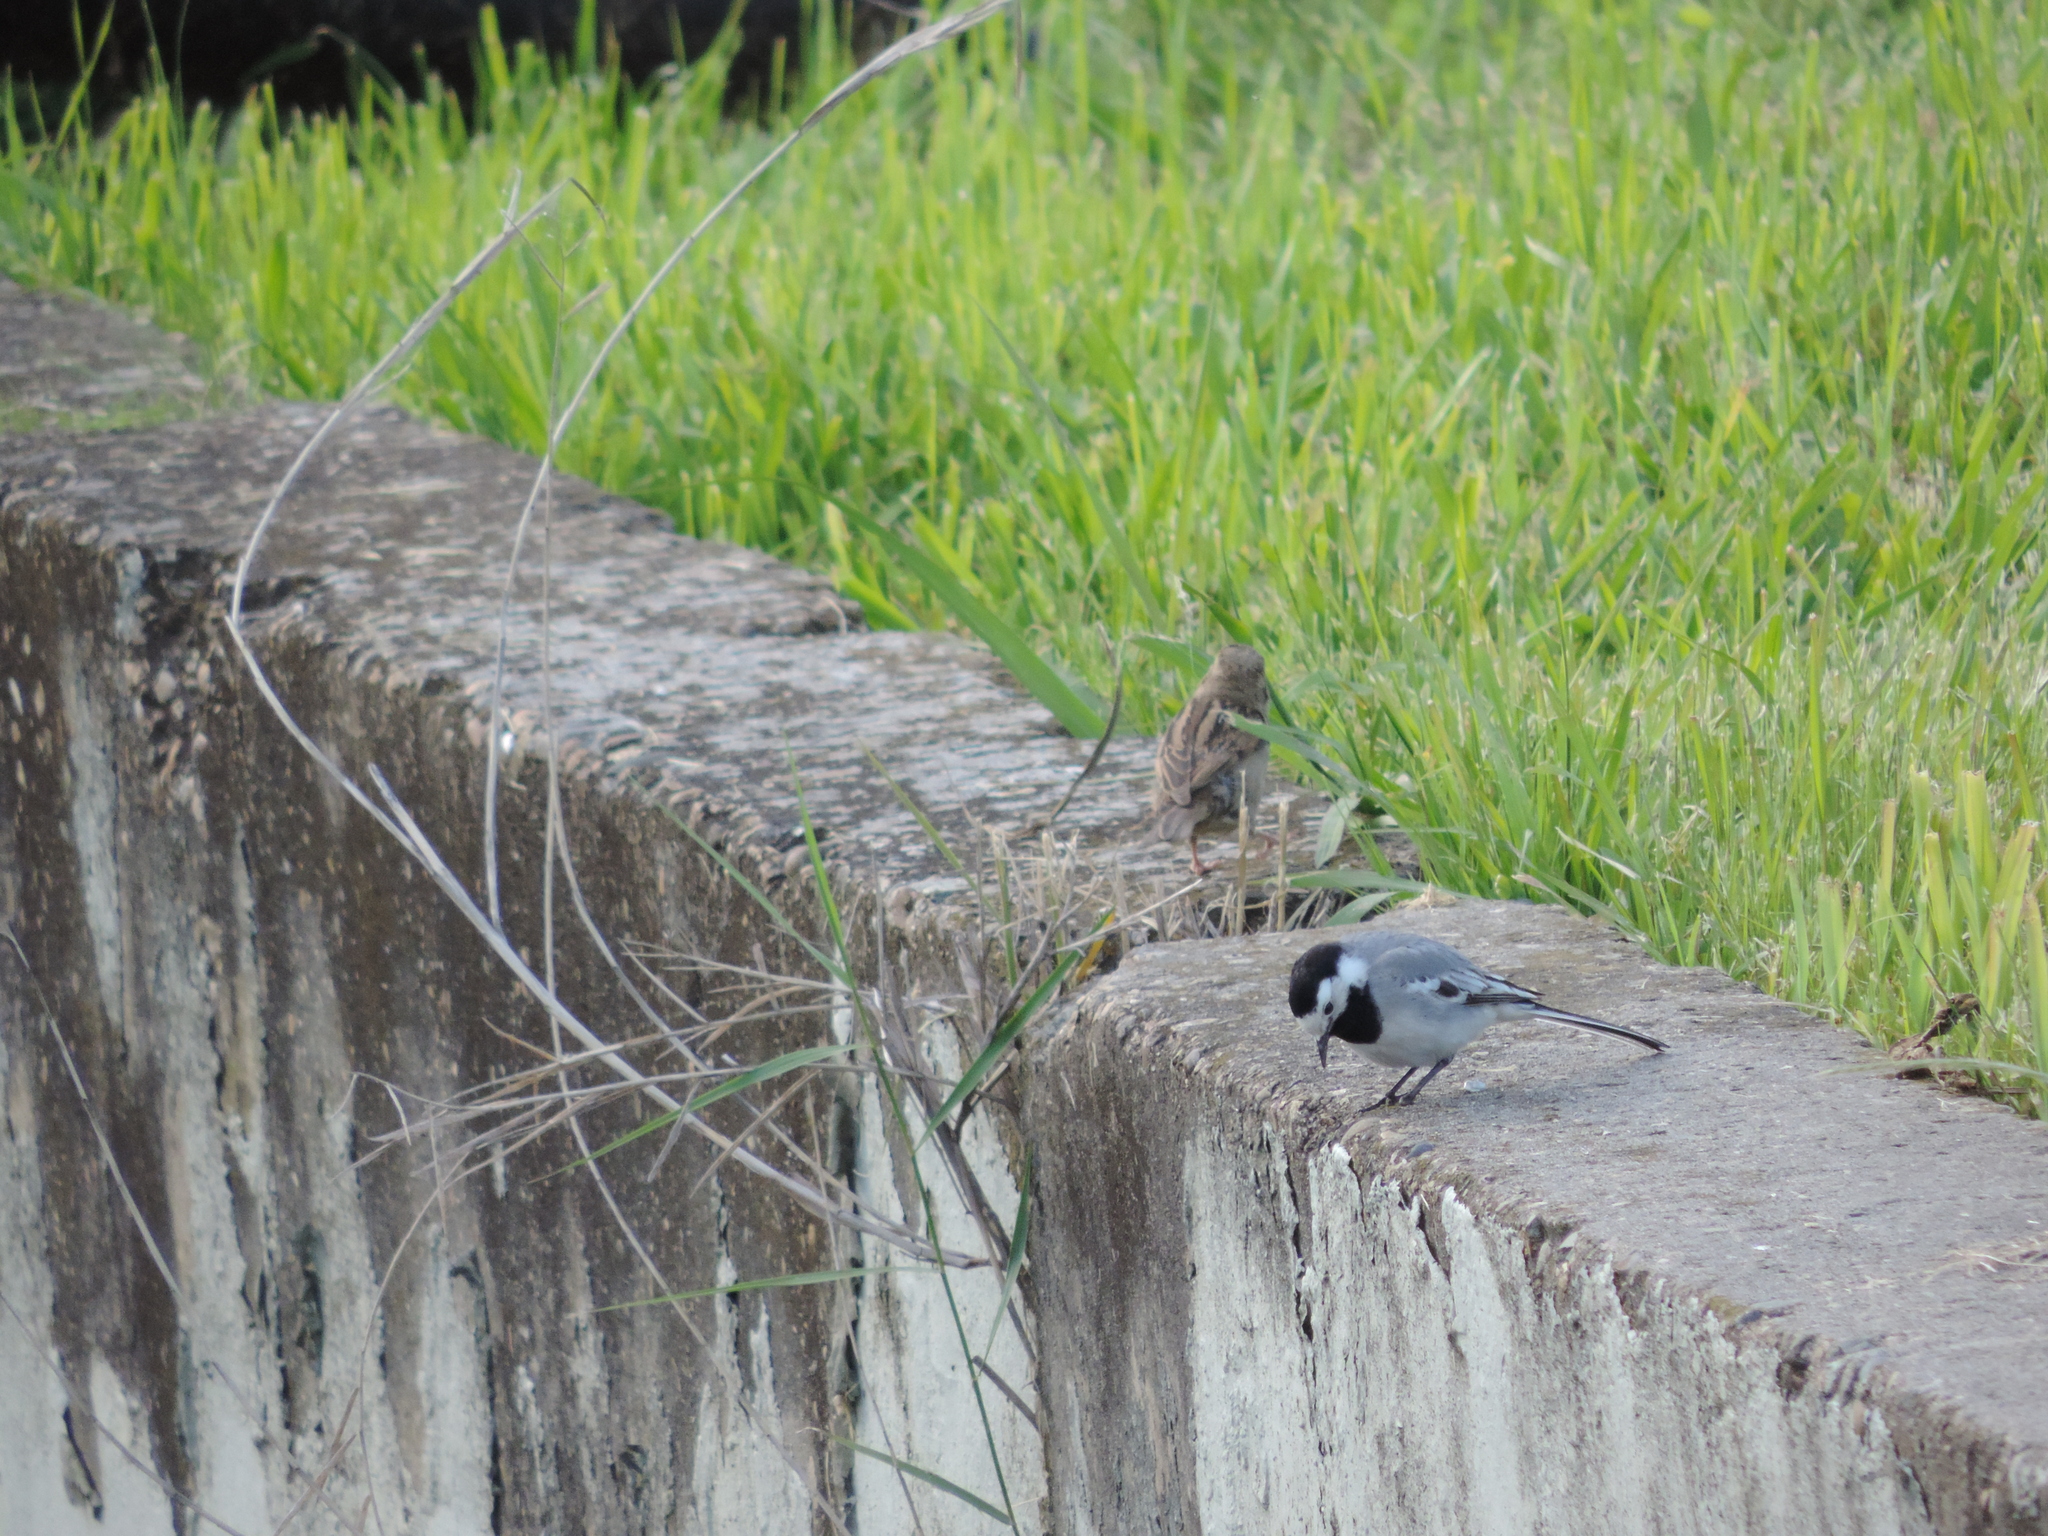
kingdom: Animalia
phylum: Chordata
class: Aves
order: Passeriformes
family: Motacillidae
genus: Motacilla
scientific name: Motacilla alba
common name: White wagtail
